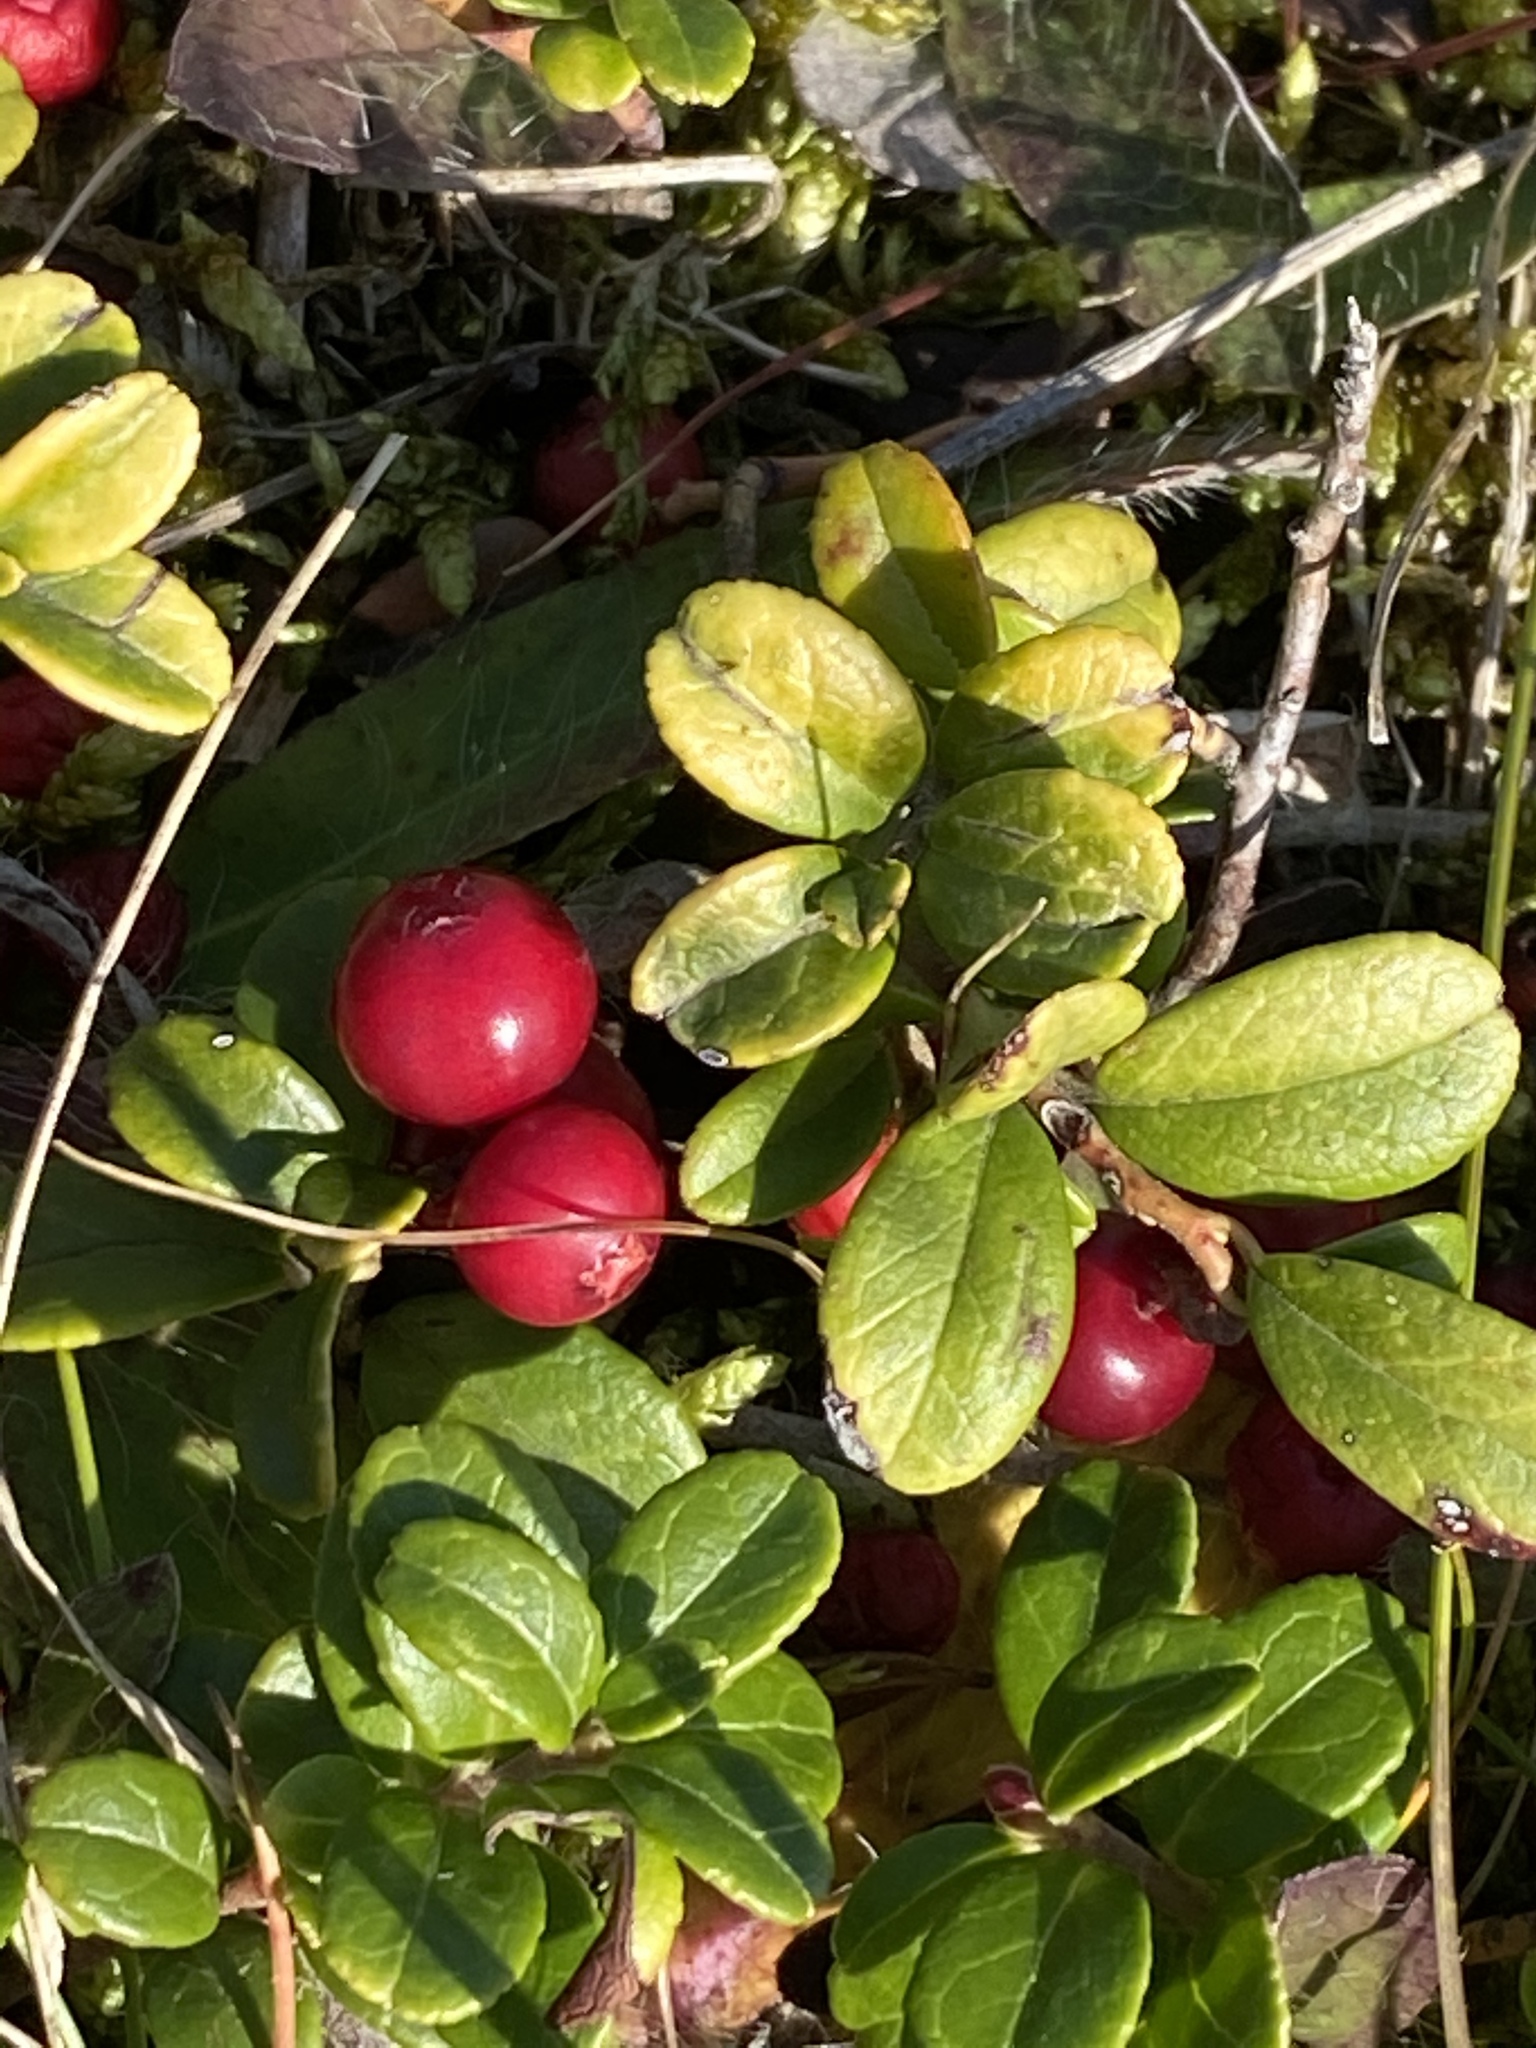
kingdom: Plantae
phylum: Tracheophyta
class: Magnoliopsida
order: Ericales
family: Ericaceae
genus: Vaccinium
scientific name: Vaccinium vitis-idaea
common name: Cowberry
